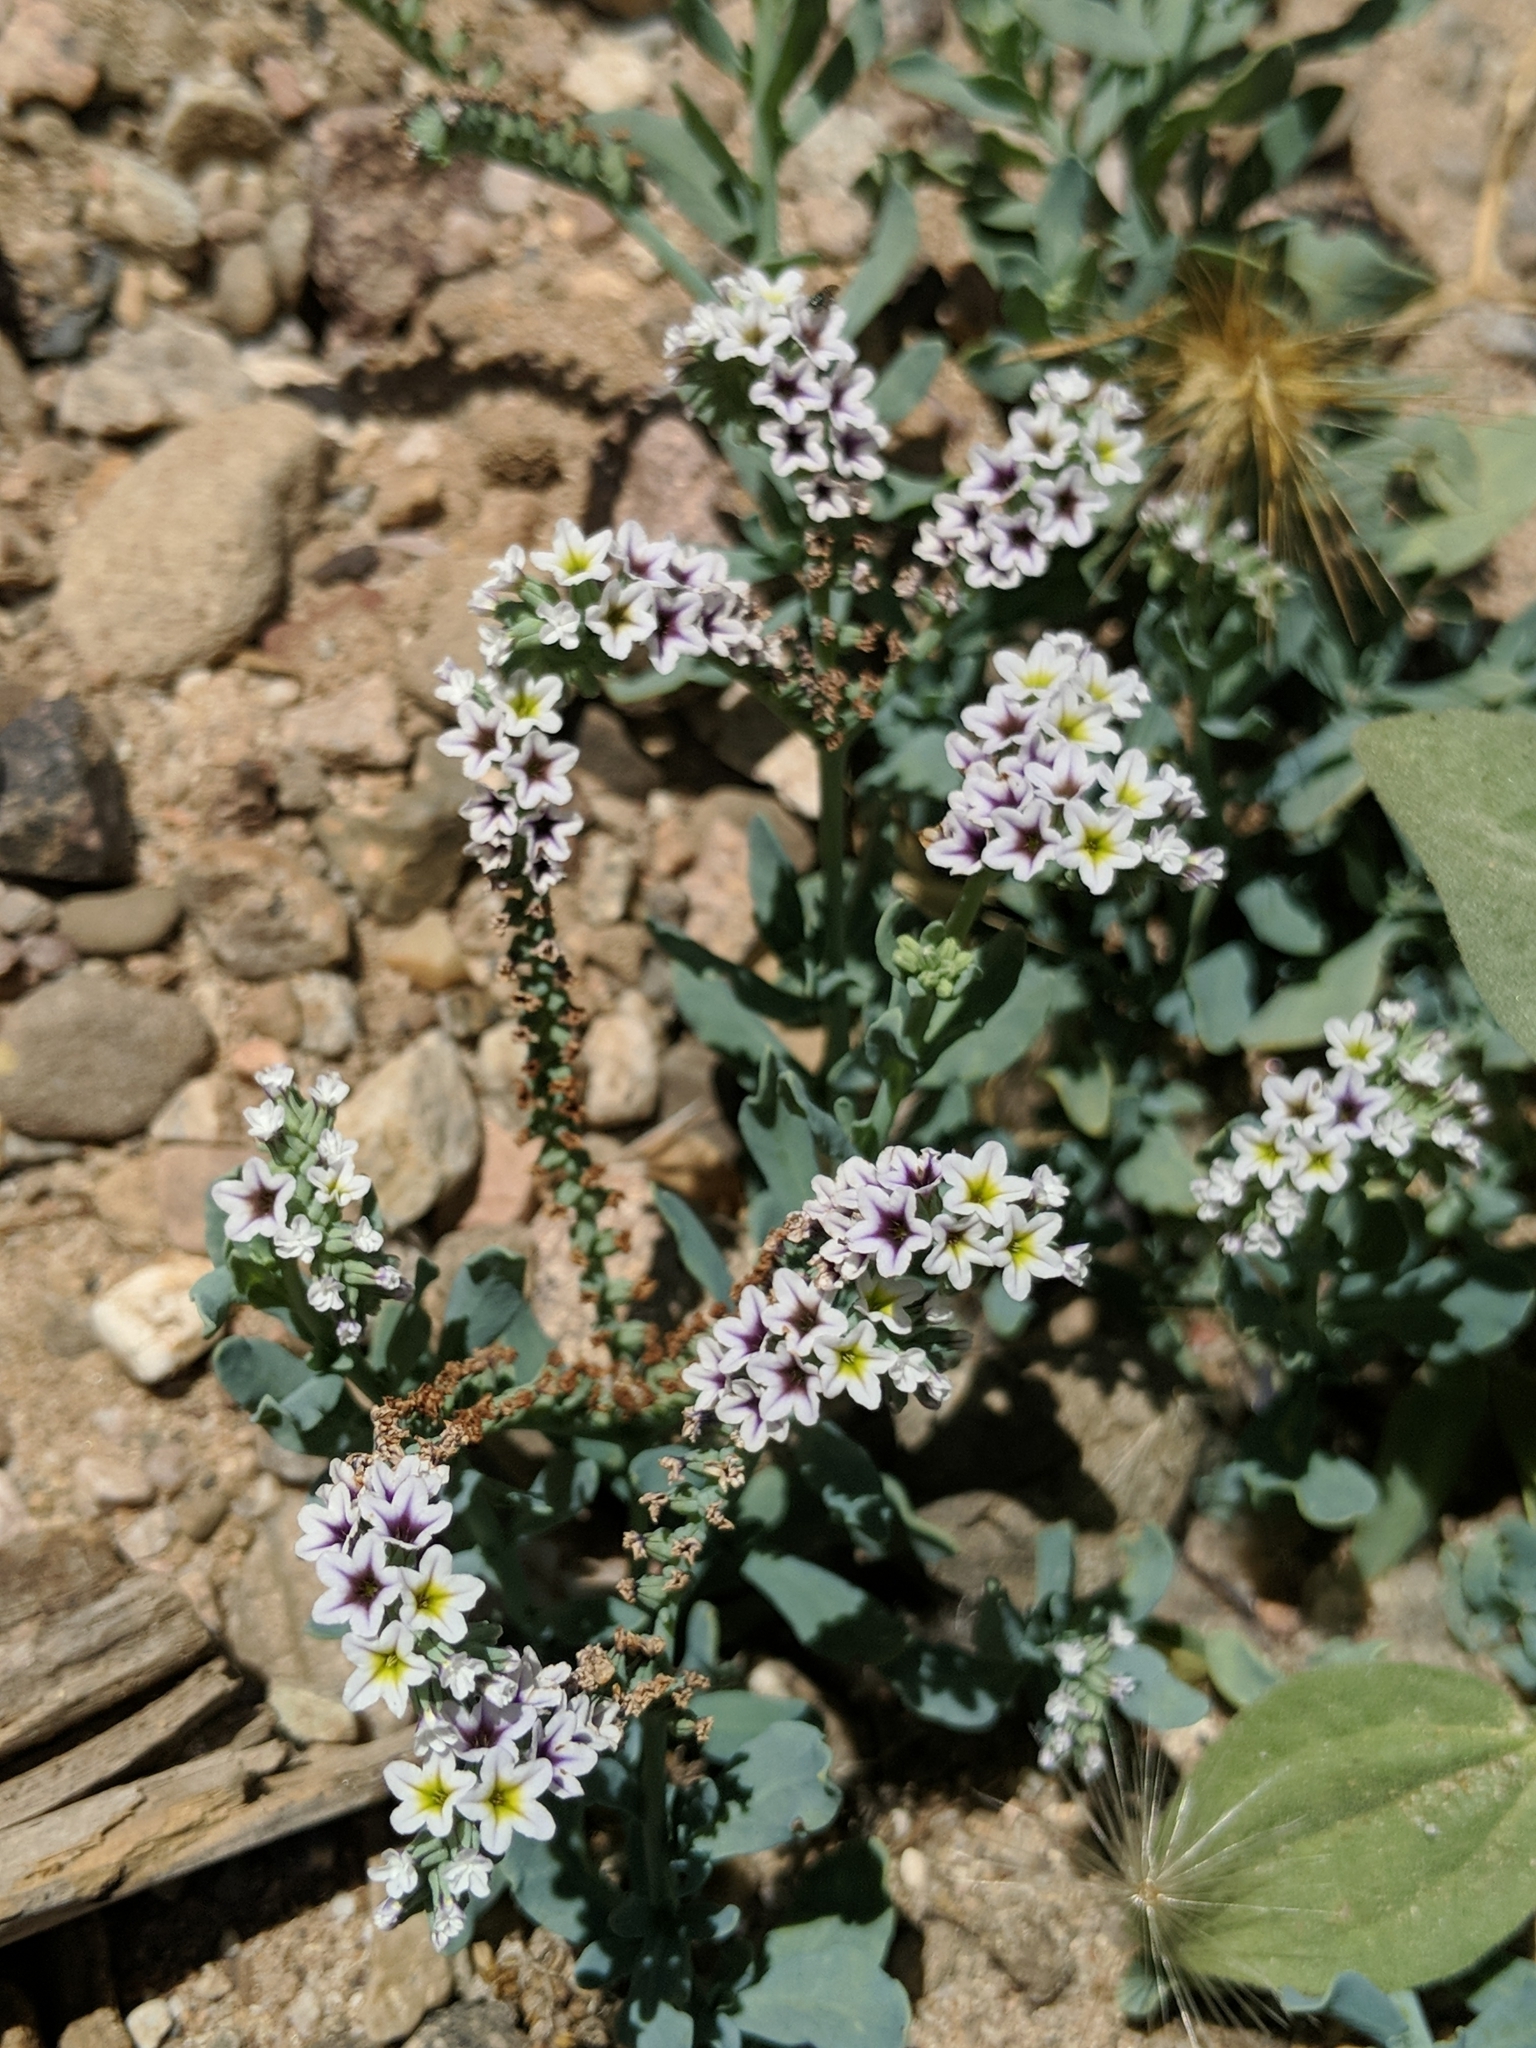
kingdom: Plantae
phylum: Tracheophyta
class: Magnoliopsida
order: Boraginales
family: Heliotropiaceae
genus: Heliotropium
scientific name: Heliotropium curassavicum
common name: Seaside heliotrope
